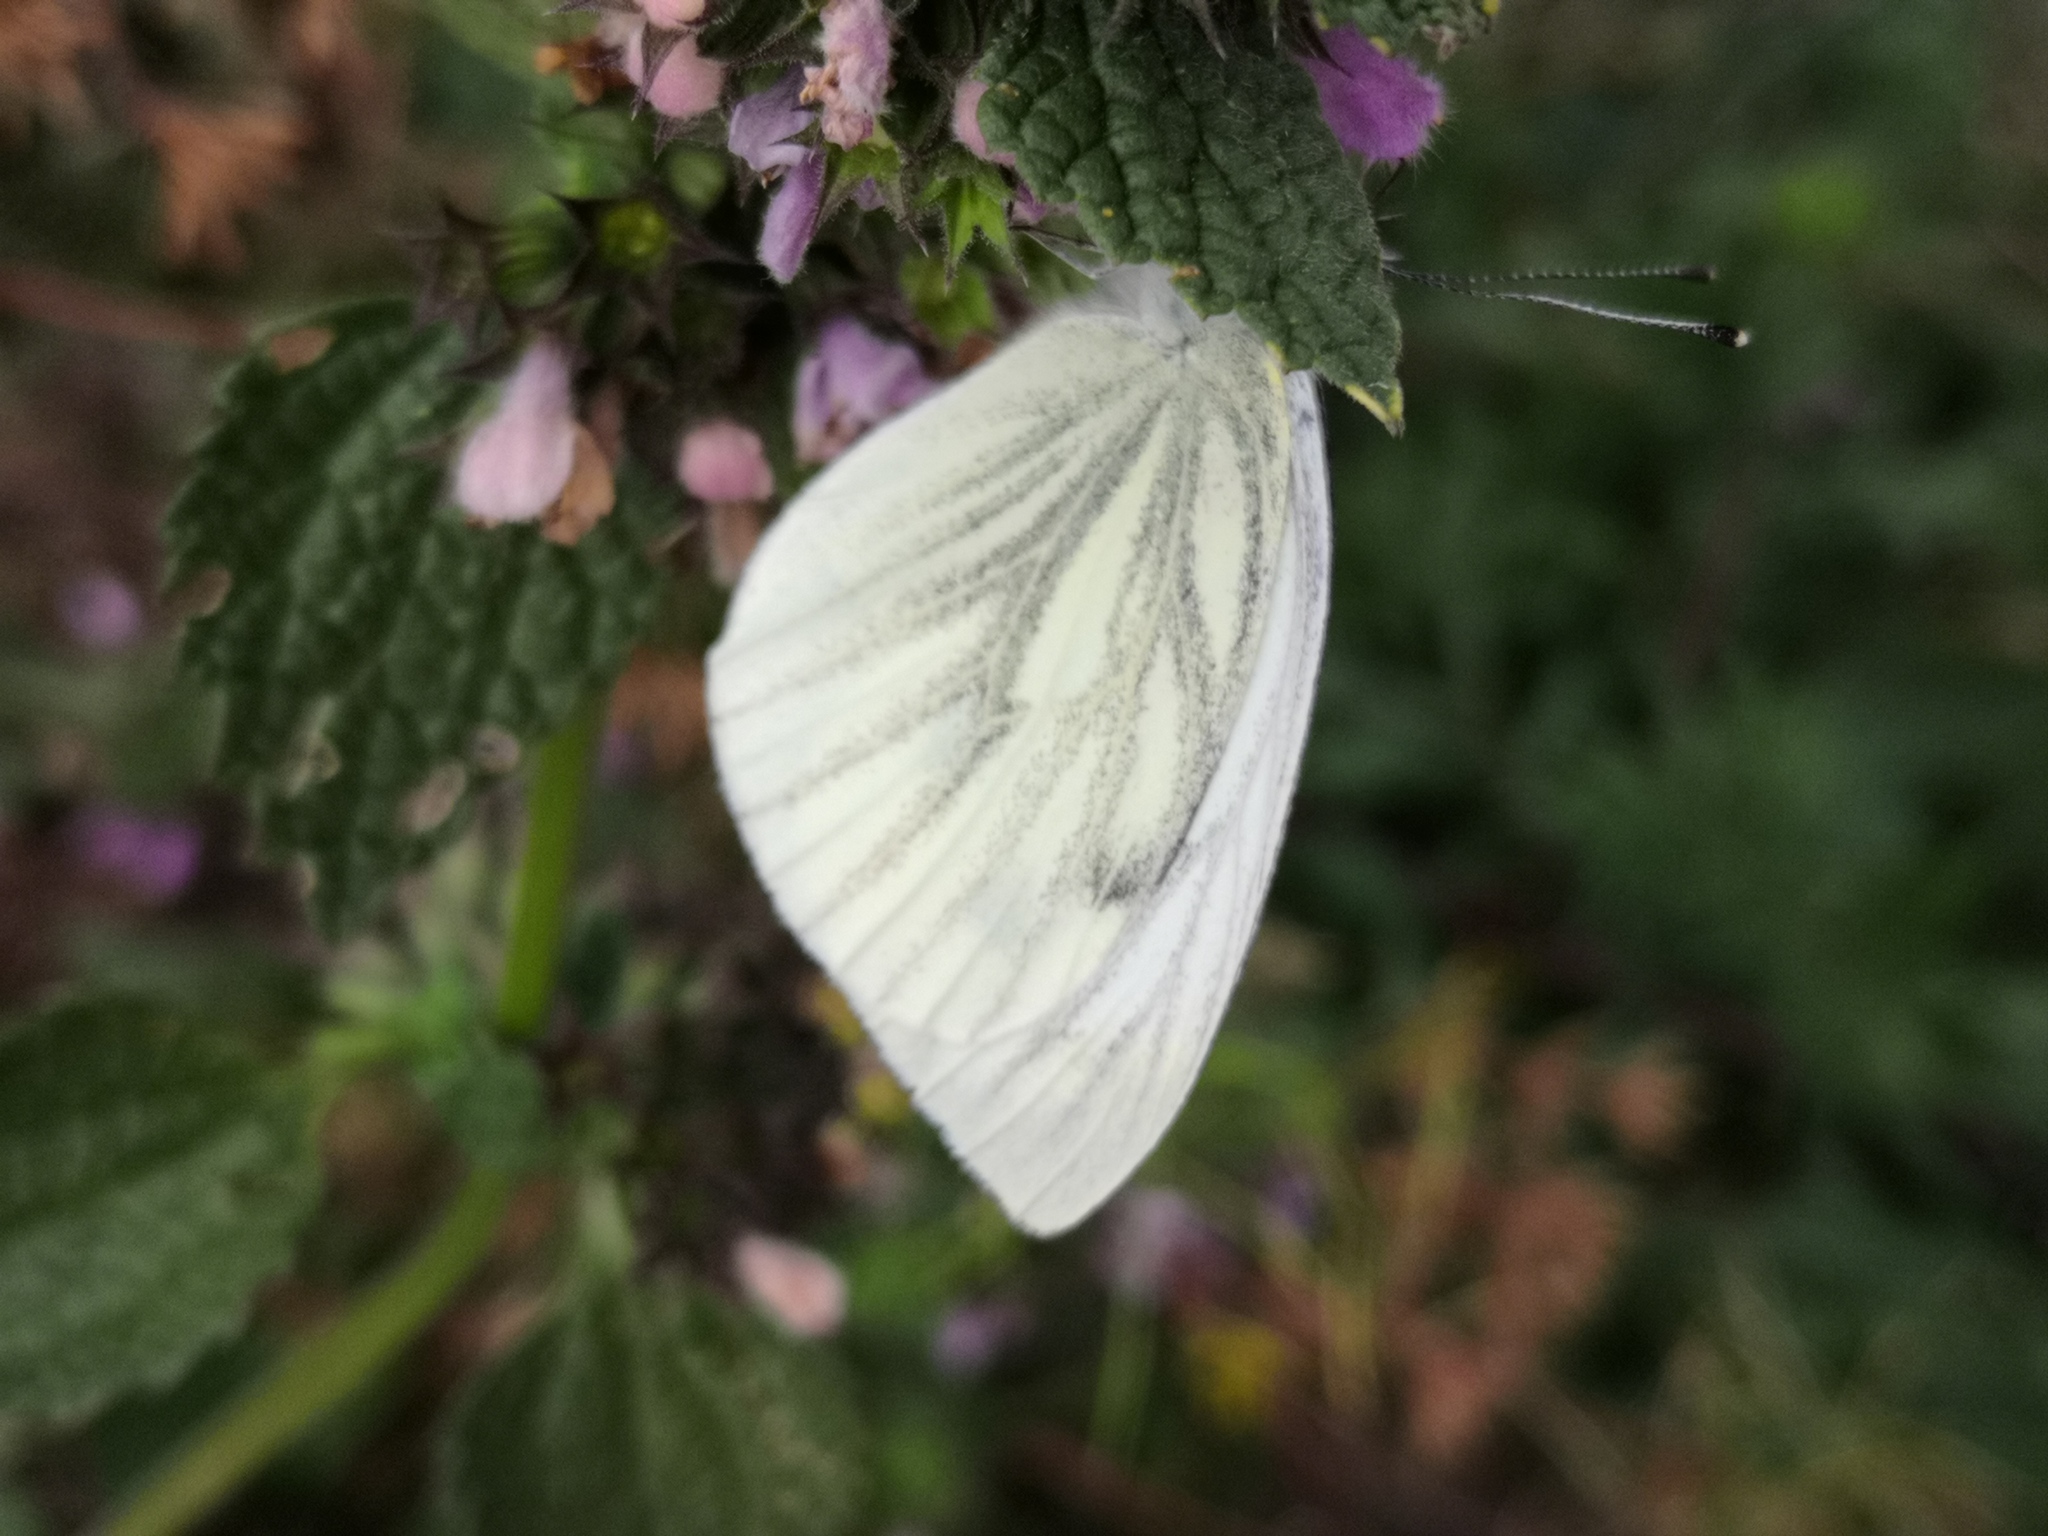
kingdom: Animalia
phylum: Arthropoda
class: Insecta
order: Lepidoptera
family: Pieridae
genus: Pieris
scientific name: Pieris napi
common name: Green-veined white
